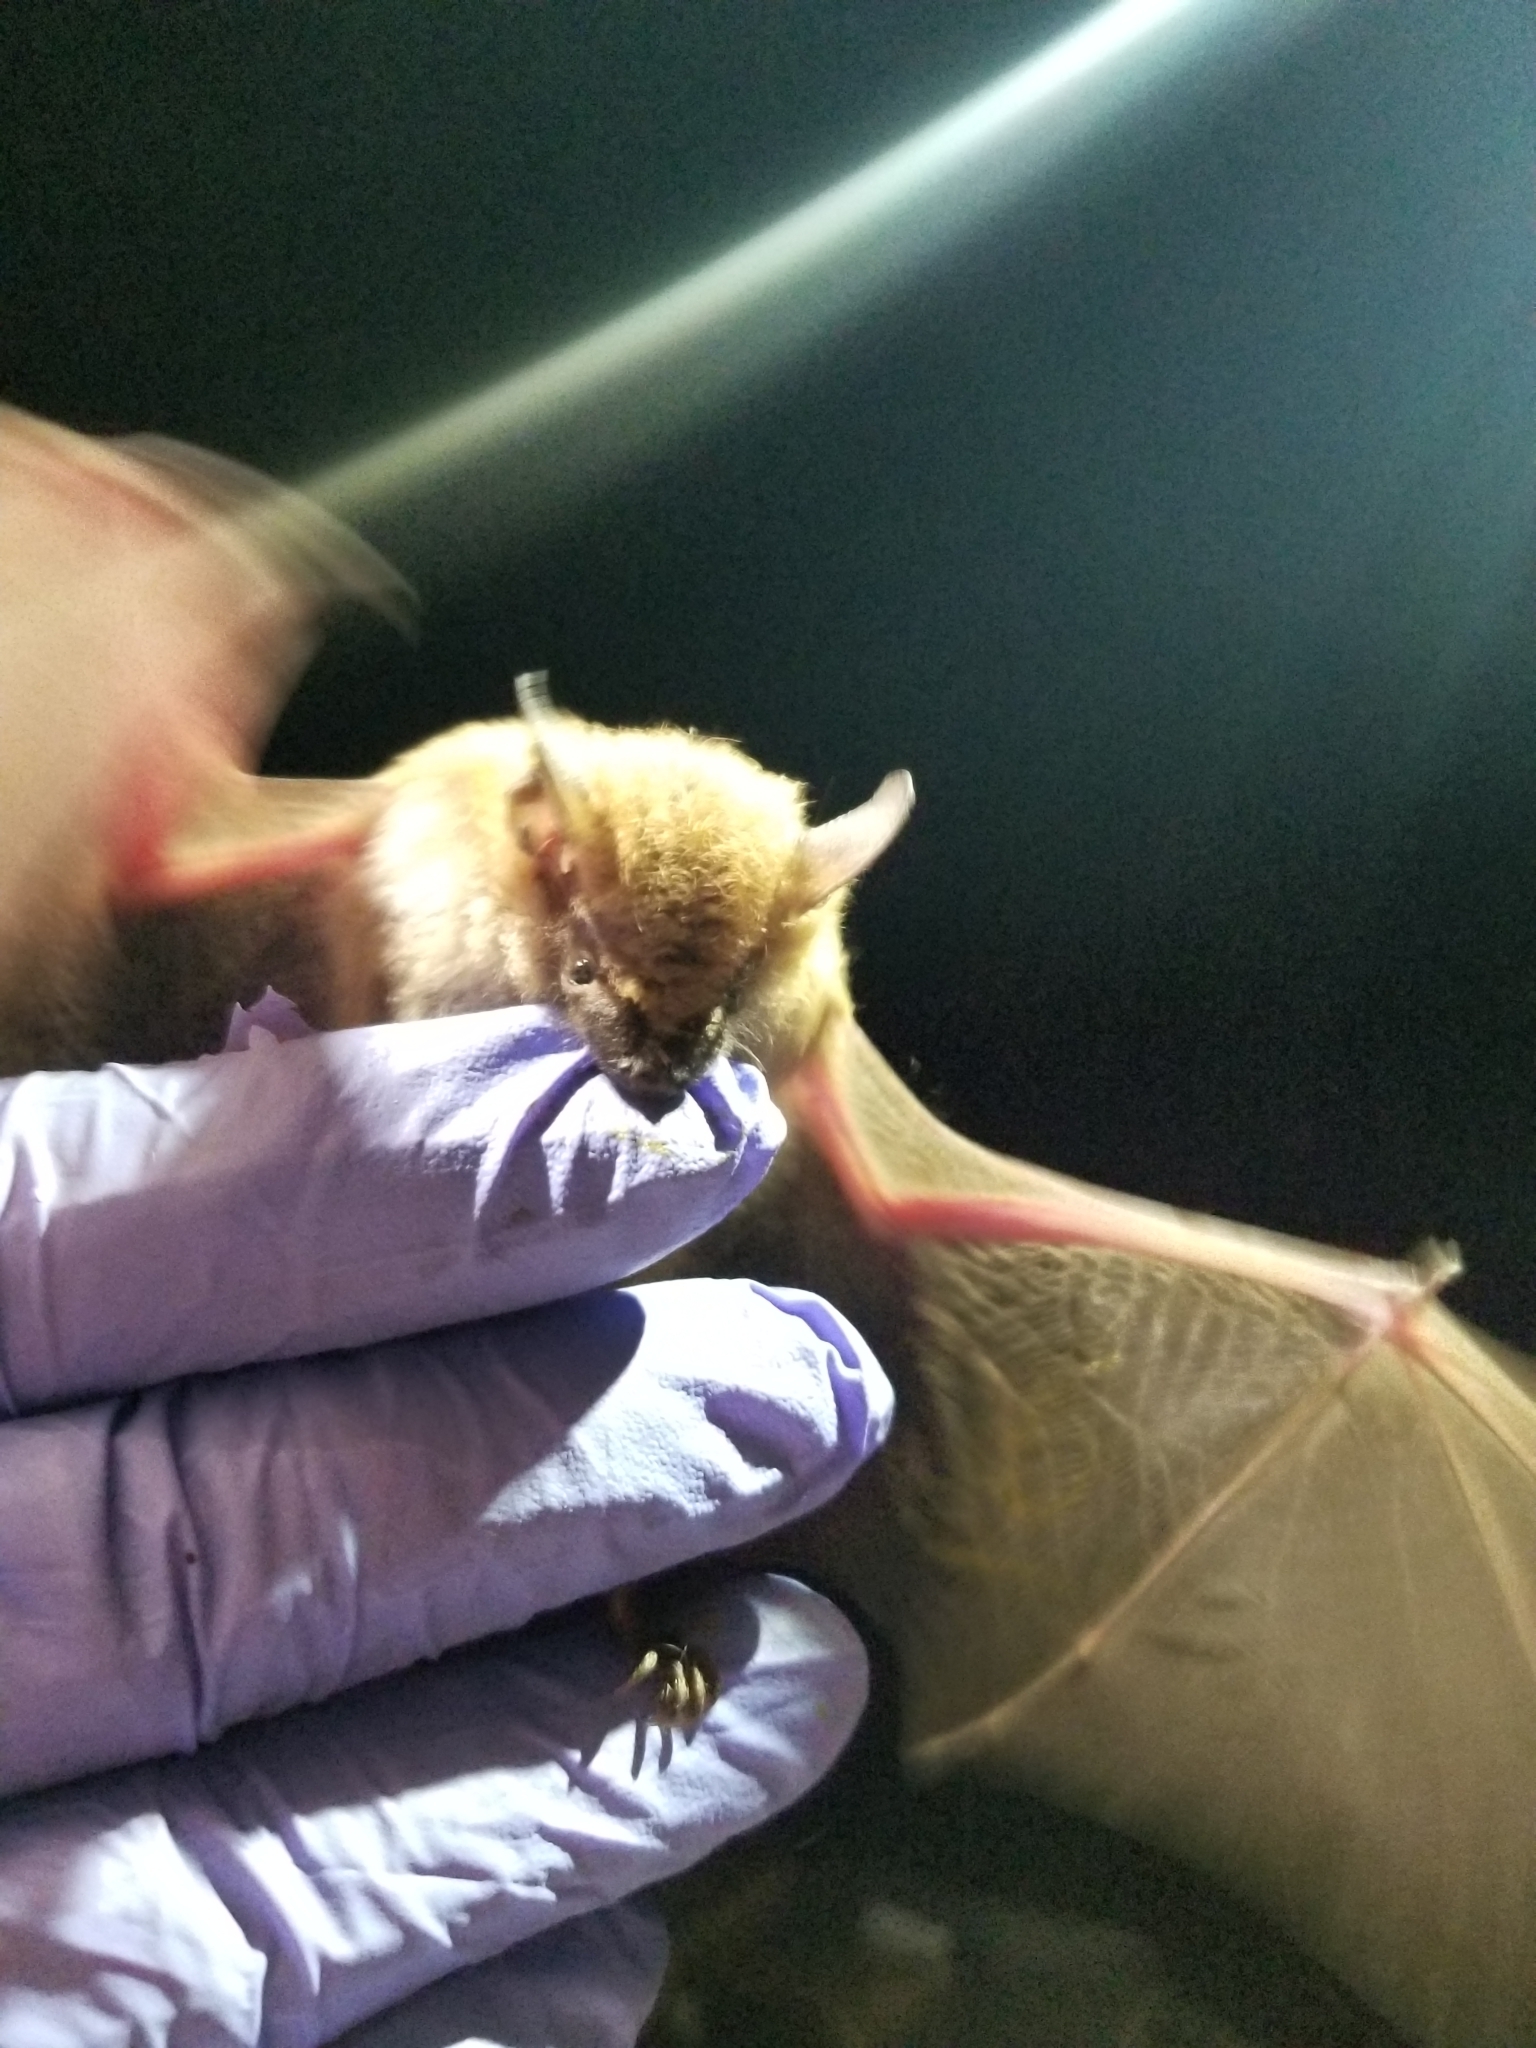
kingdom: Animalia
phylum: Chordata
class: Mammalia
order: Chiroptera
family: Vespertilionidae
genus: Eptesicus
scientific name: Eptesicus fuscus
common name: Big brown bat
